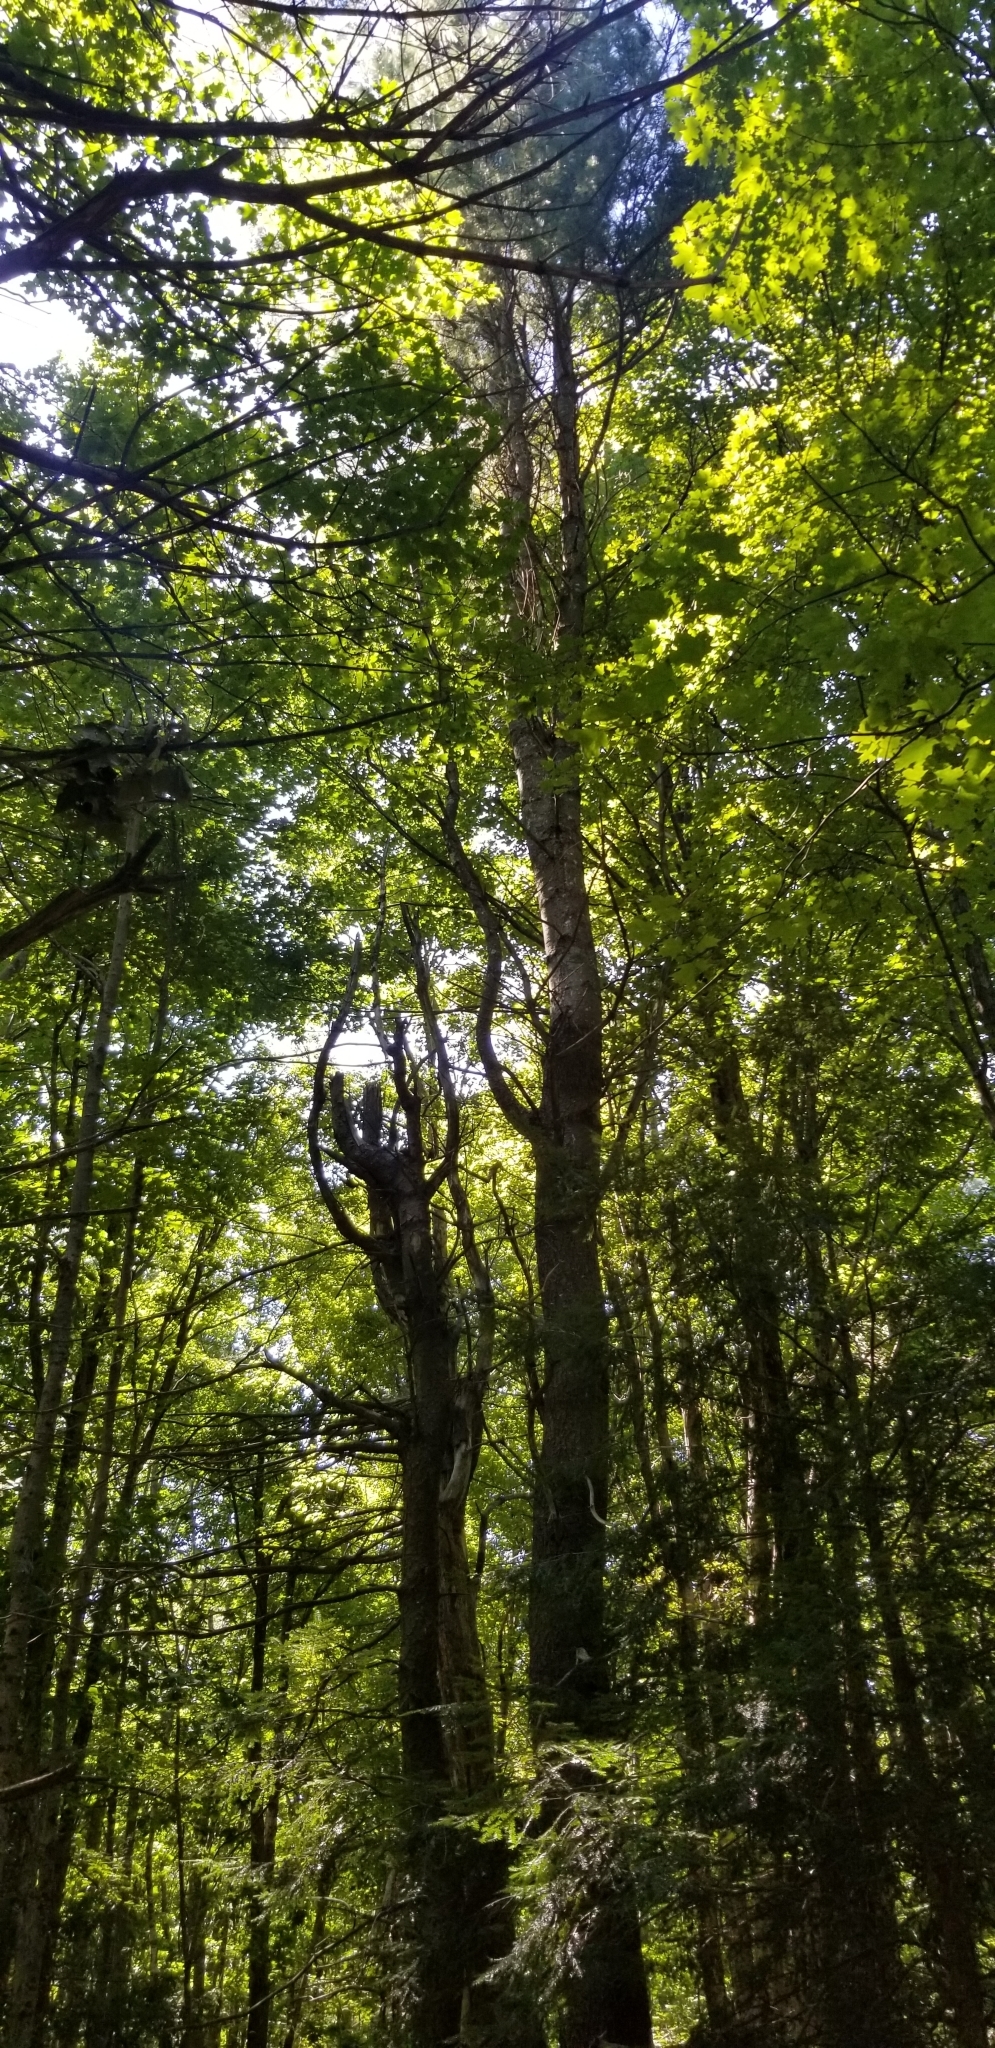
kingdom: Plantae
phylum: Tracheophyta
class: Pinopsida
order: Pinales
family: Pinaceae
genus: Pinus
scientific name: Pinus strobus
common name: Weymouth pine
